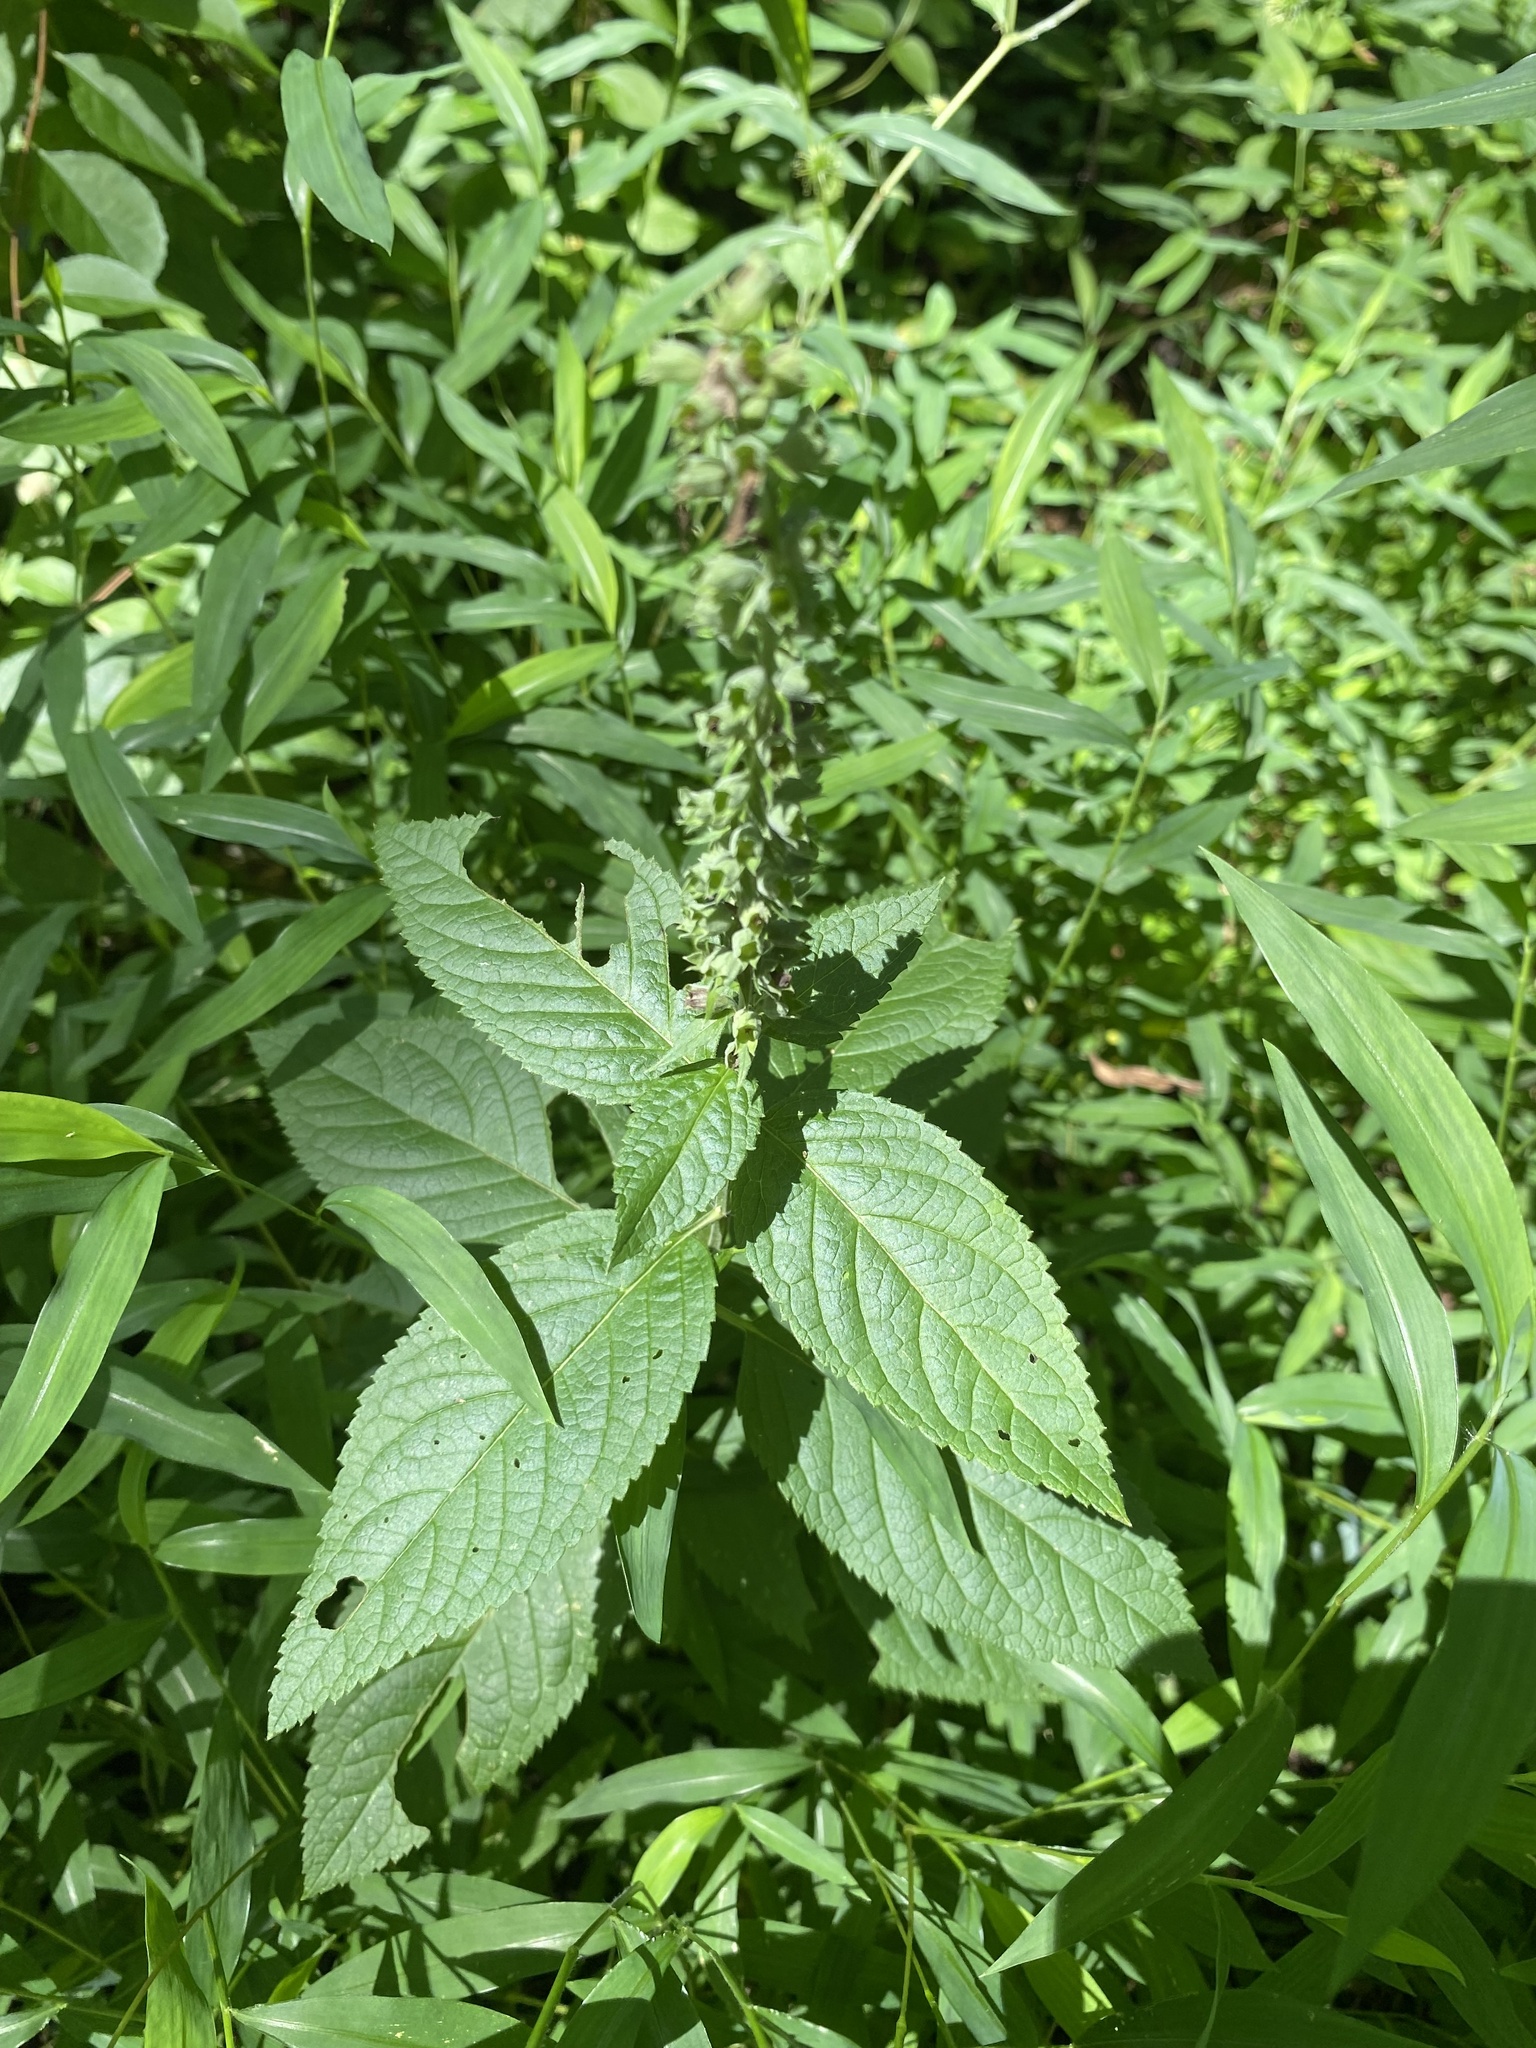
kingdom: Plantae
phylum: Tracheophyta
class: Magnoliopsida
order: Lamiales
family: Lamiaceae
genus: Teucrium
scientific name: Teucrium canadense
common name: American germander
